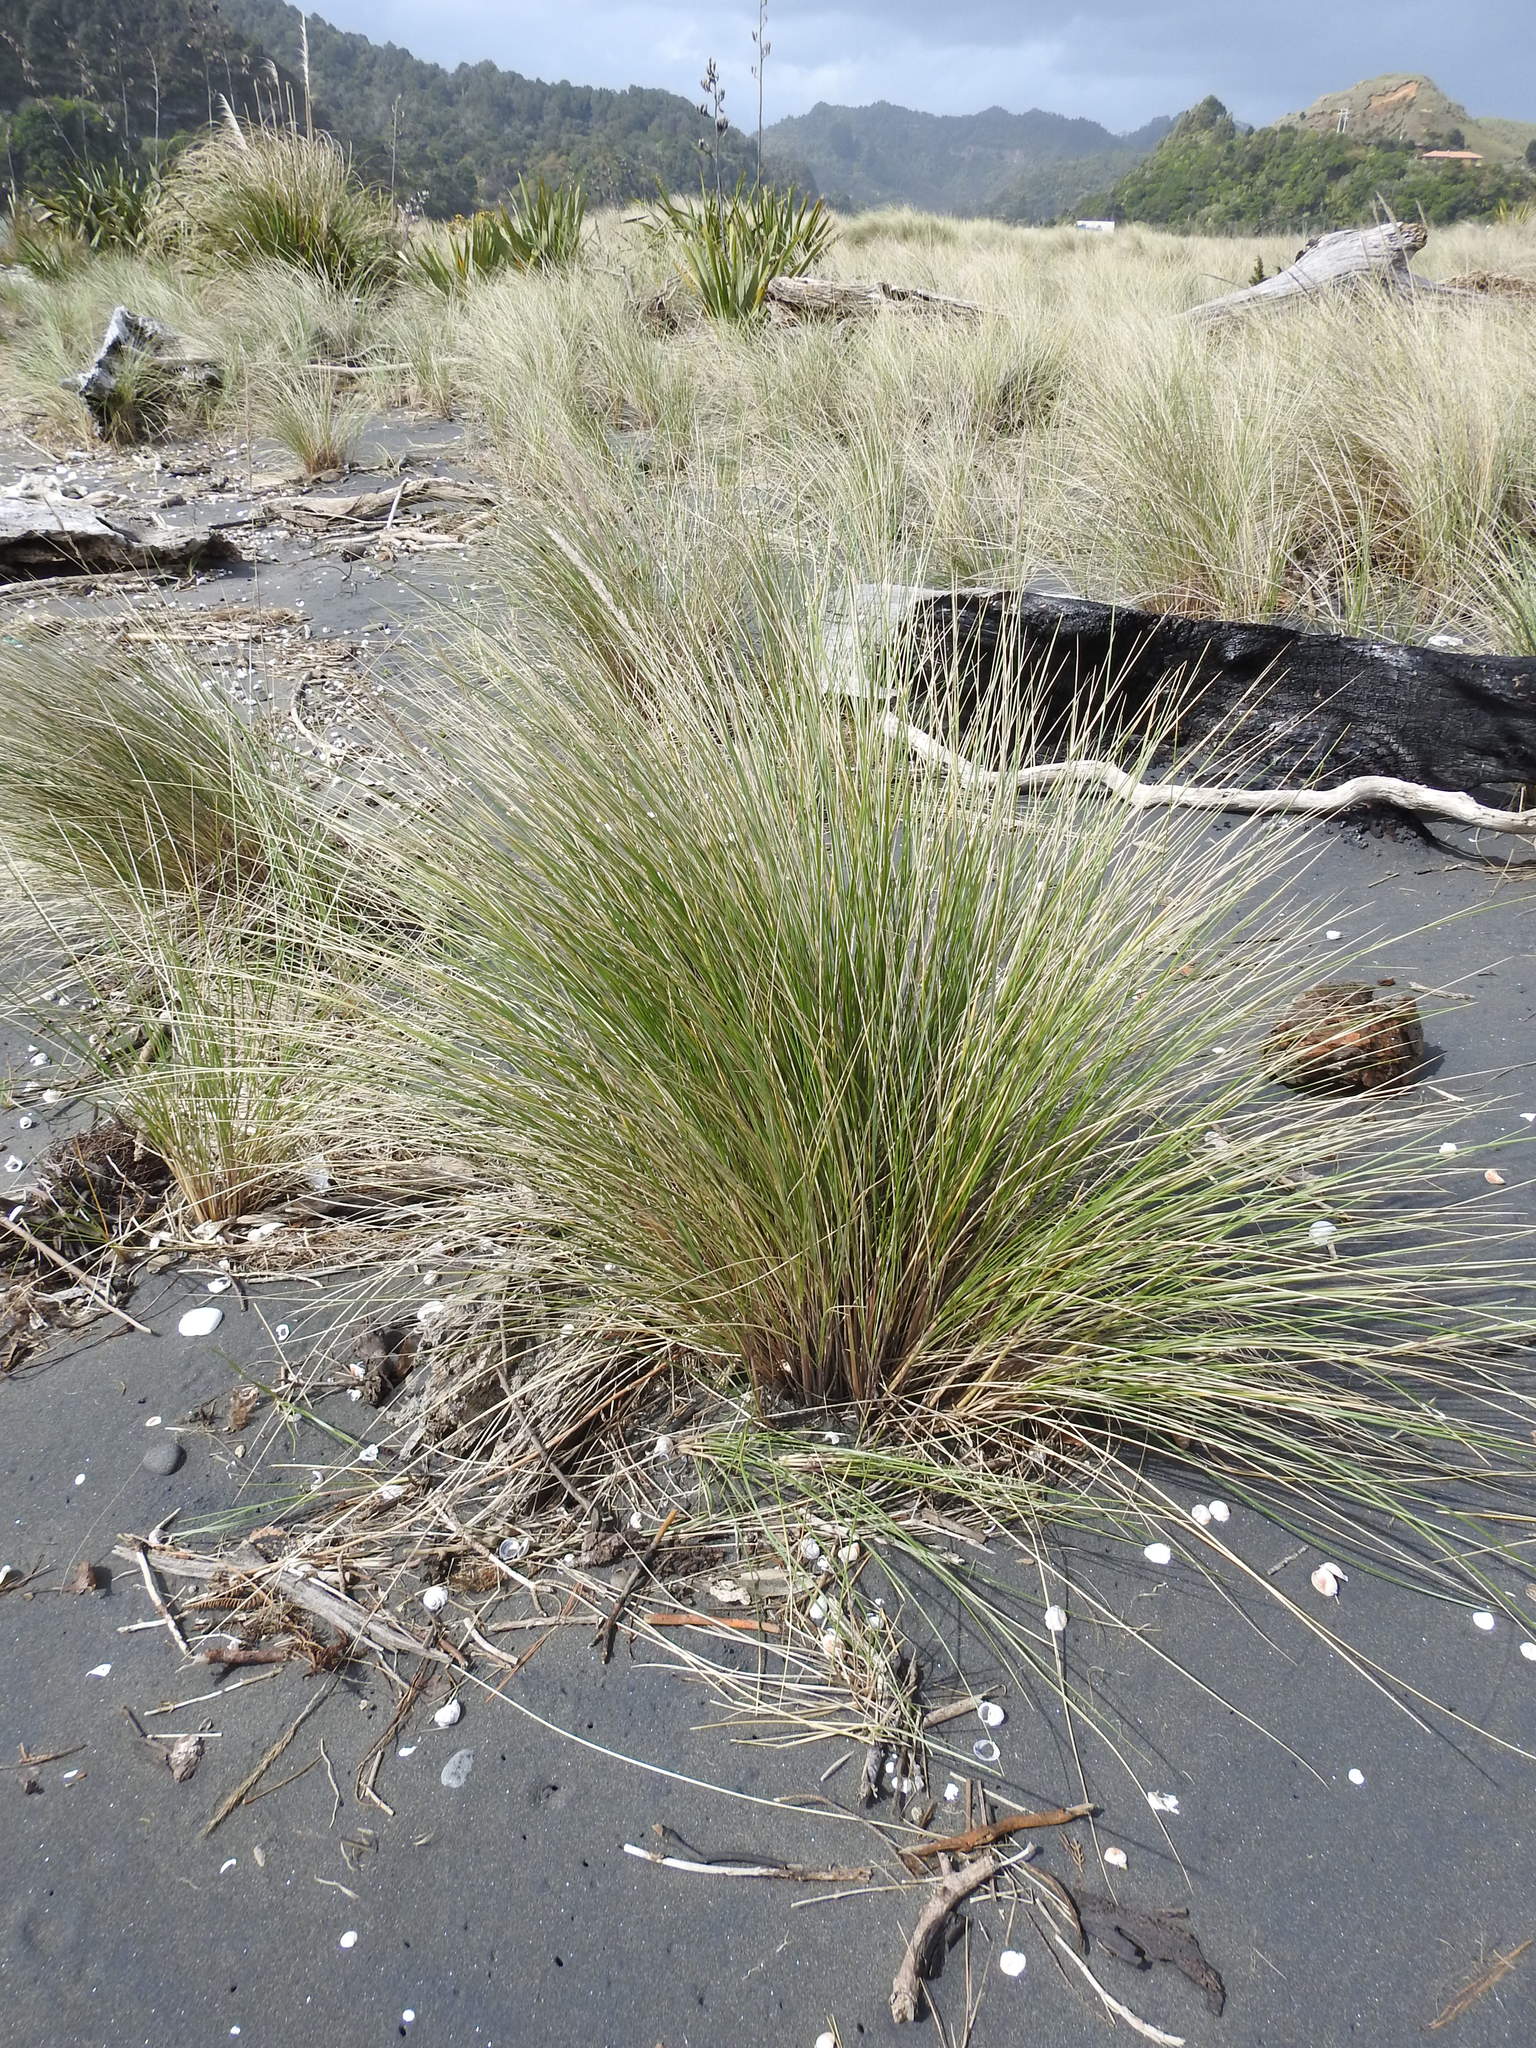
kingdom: Plantae
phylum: Tracheophyta
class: Liliopsida
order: Poales
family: Poaceae
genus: Calamagrostis
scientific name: Calamagrostis arenaria
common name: European beachgrass
